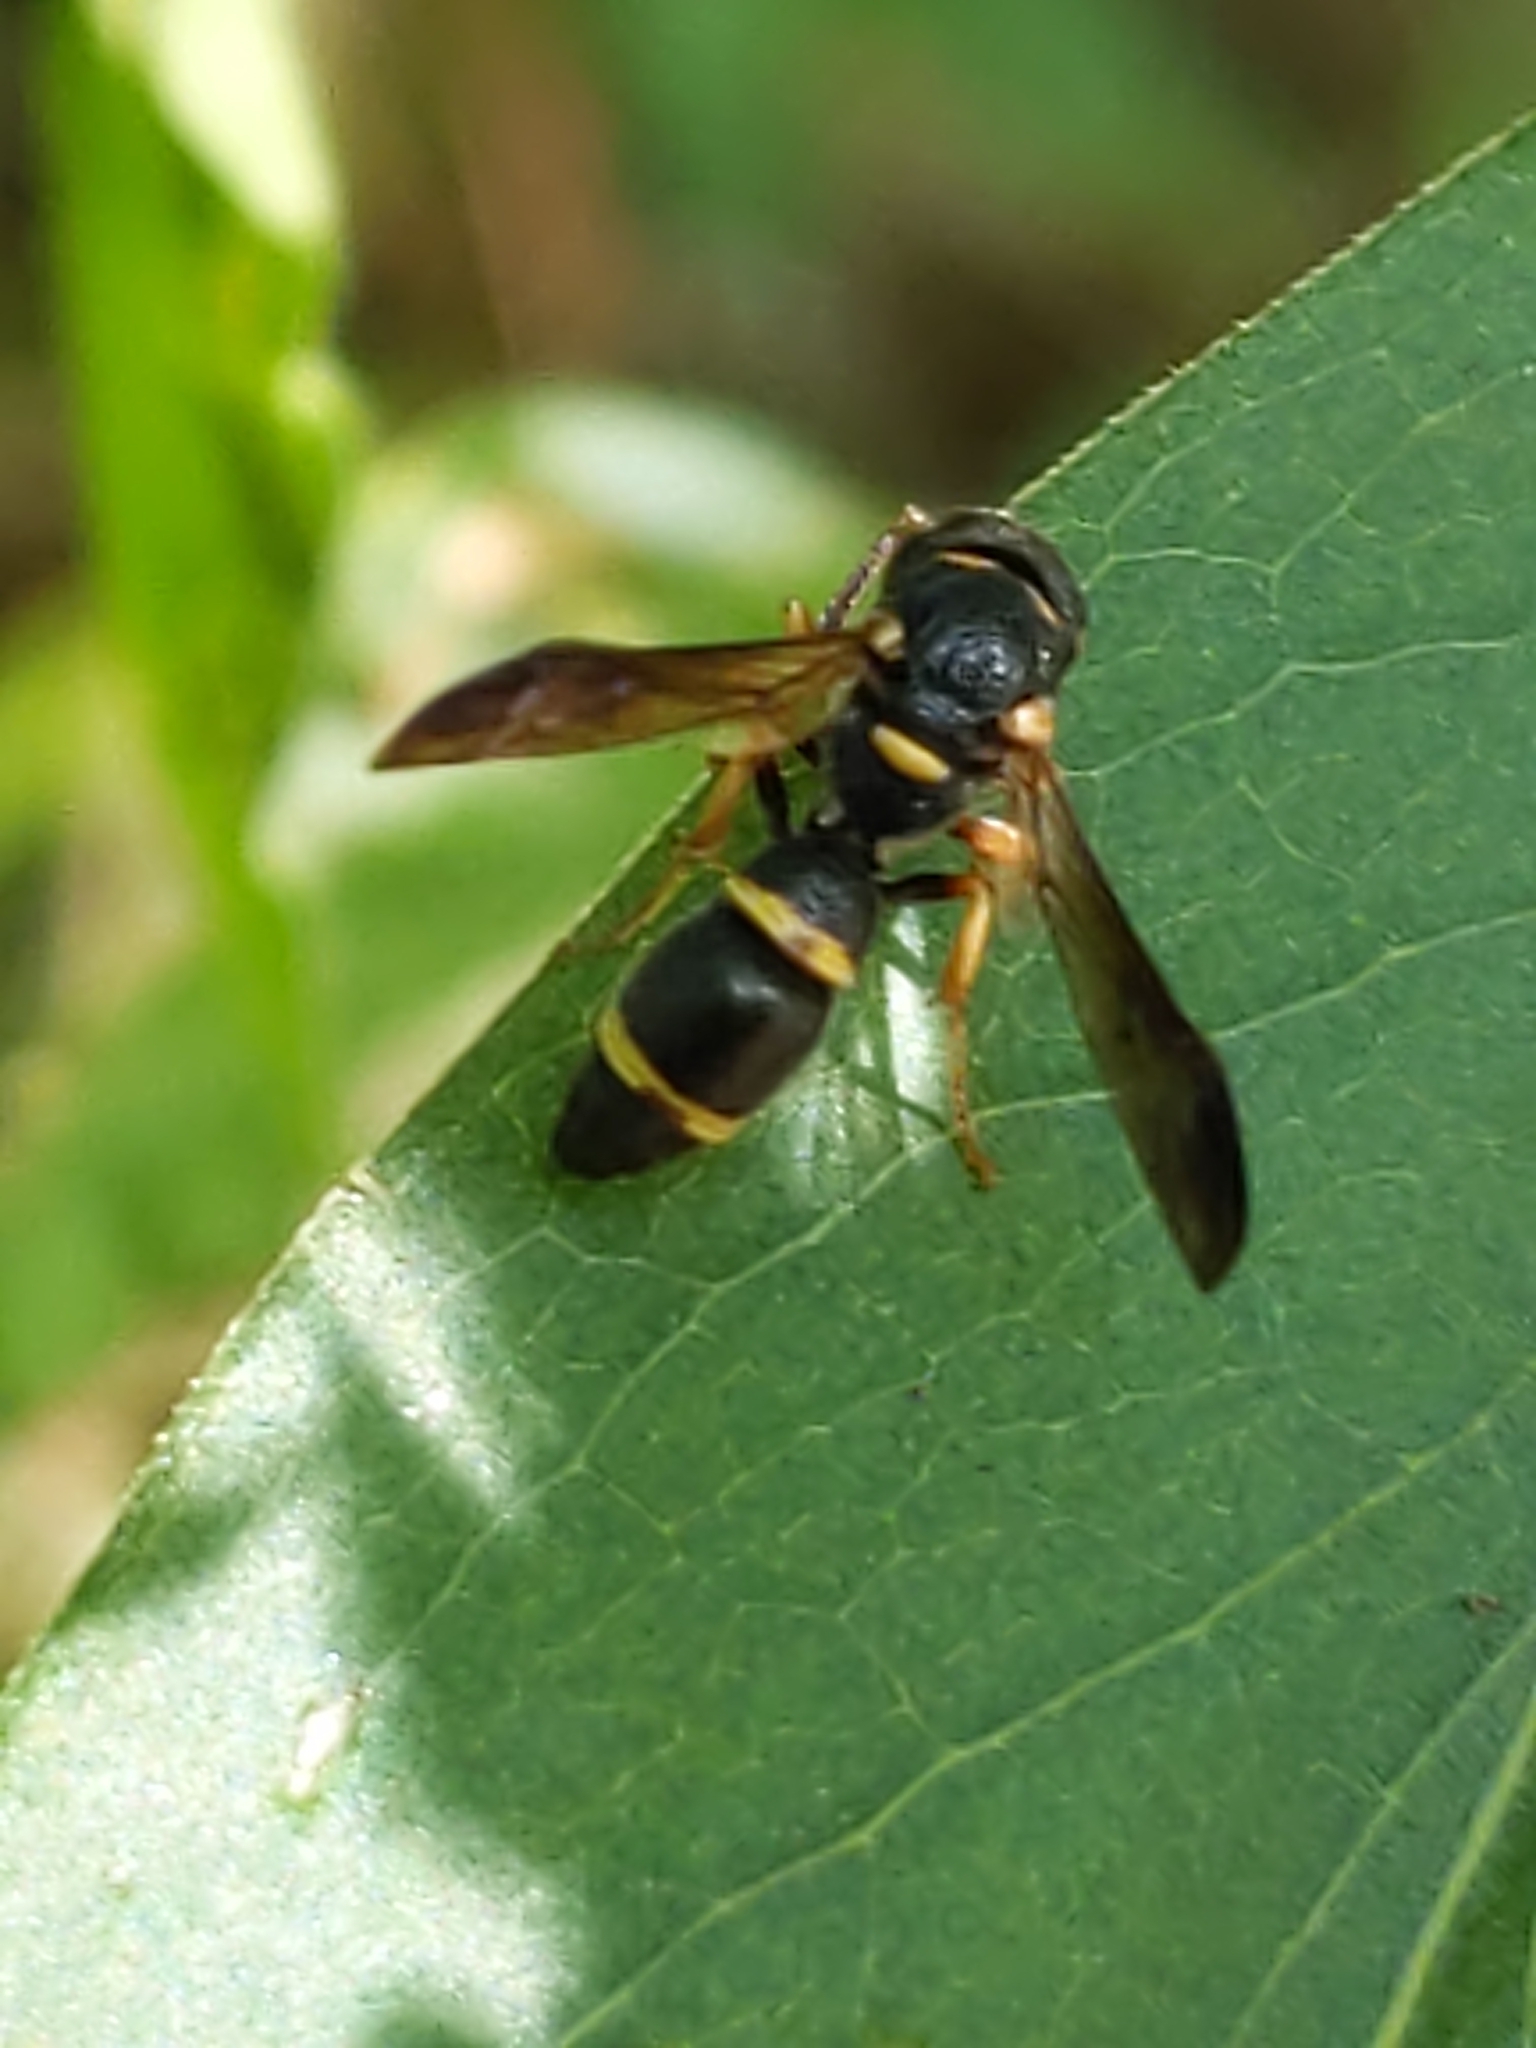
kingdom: Animalia
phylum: Arthropoda
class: Insecta
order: Hymenoptera
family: Eumenidae
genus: Parancistrocerus
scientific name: Parancistrocerus perennis
